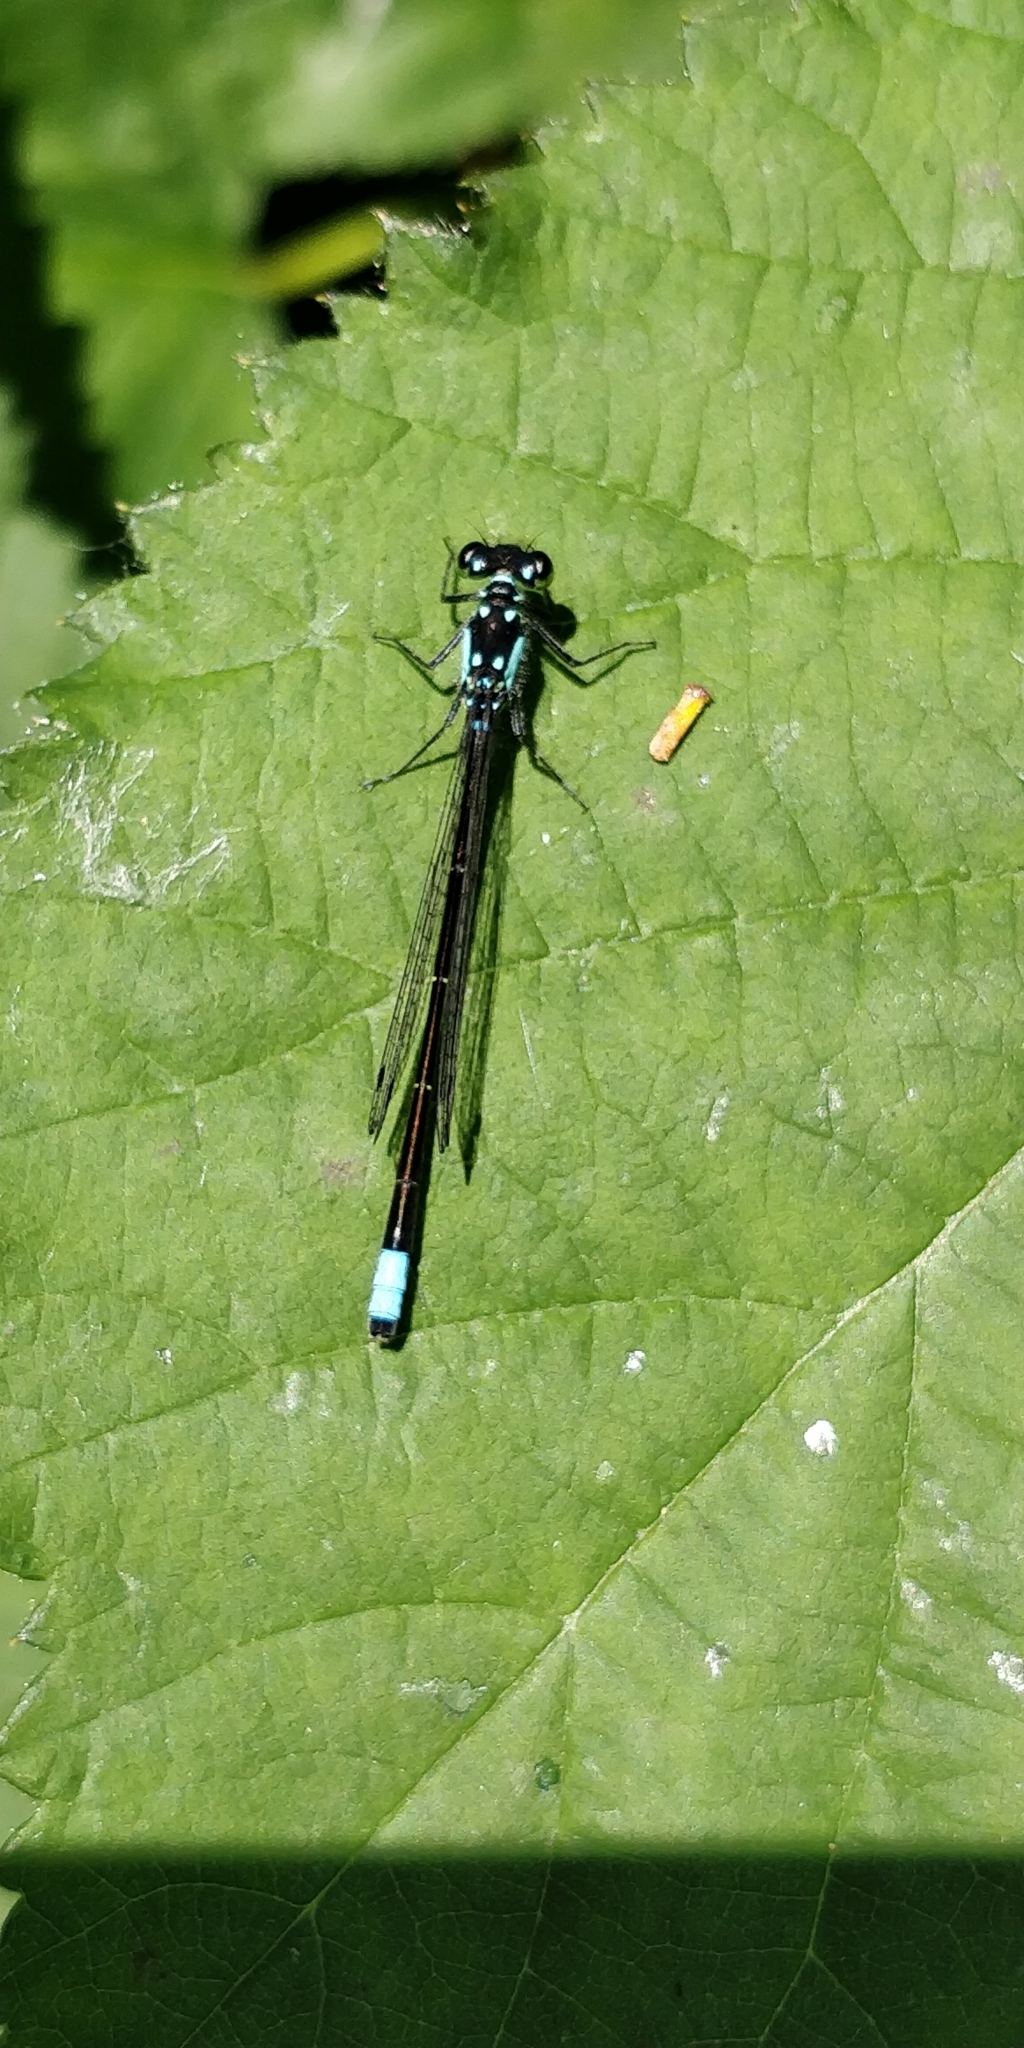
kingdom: Animalia
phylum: Arthropoda
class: Insecta
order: Odonata
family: Coenagrionidae
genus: Ischnura
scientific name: Ischnura cervula
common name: Pacific forktail
